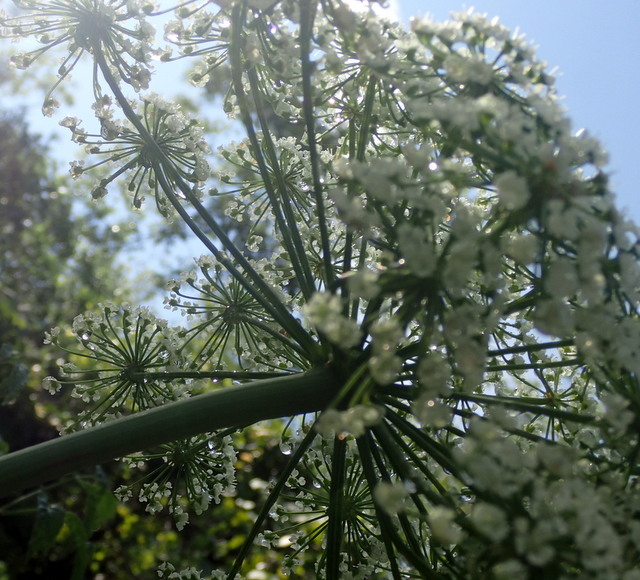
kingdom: Plantae
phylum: Tracheophyta
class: Magnoliopsida
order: Apiales
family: Apiaceae
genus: Cicuta
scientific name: Cicuta maculata
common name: Spotted cowbane
